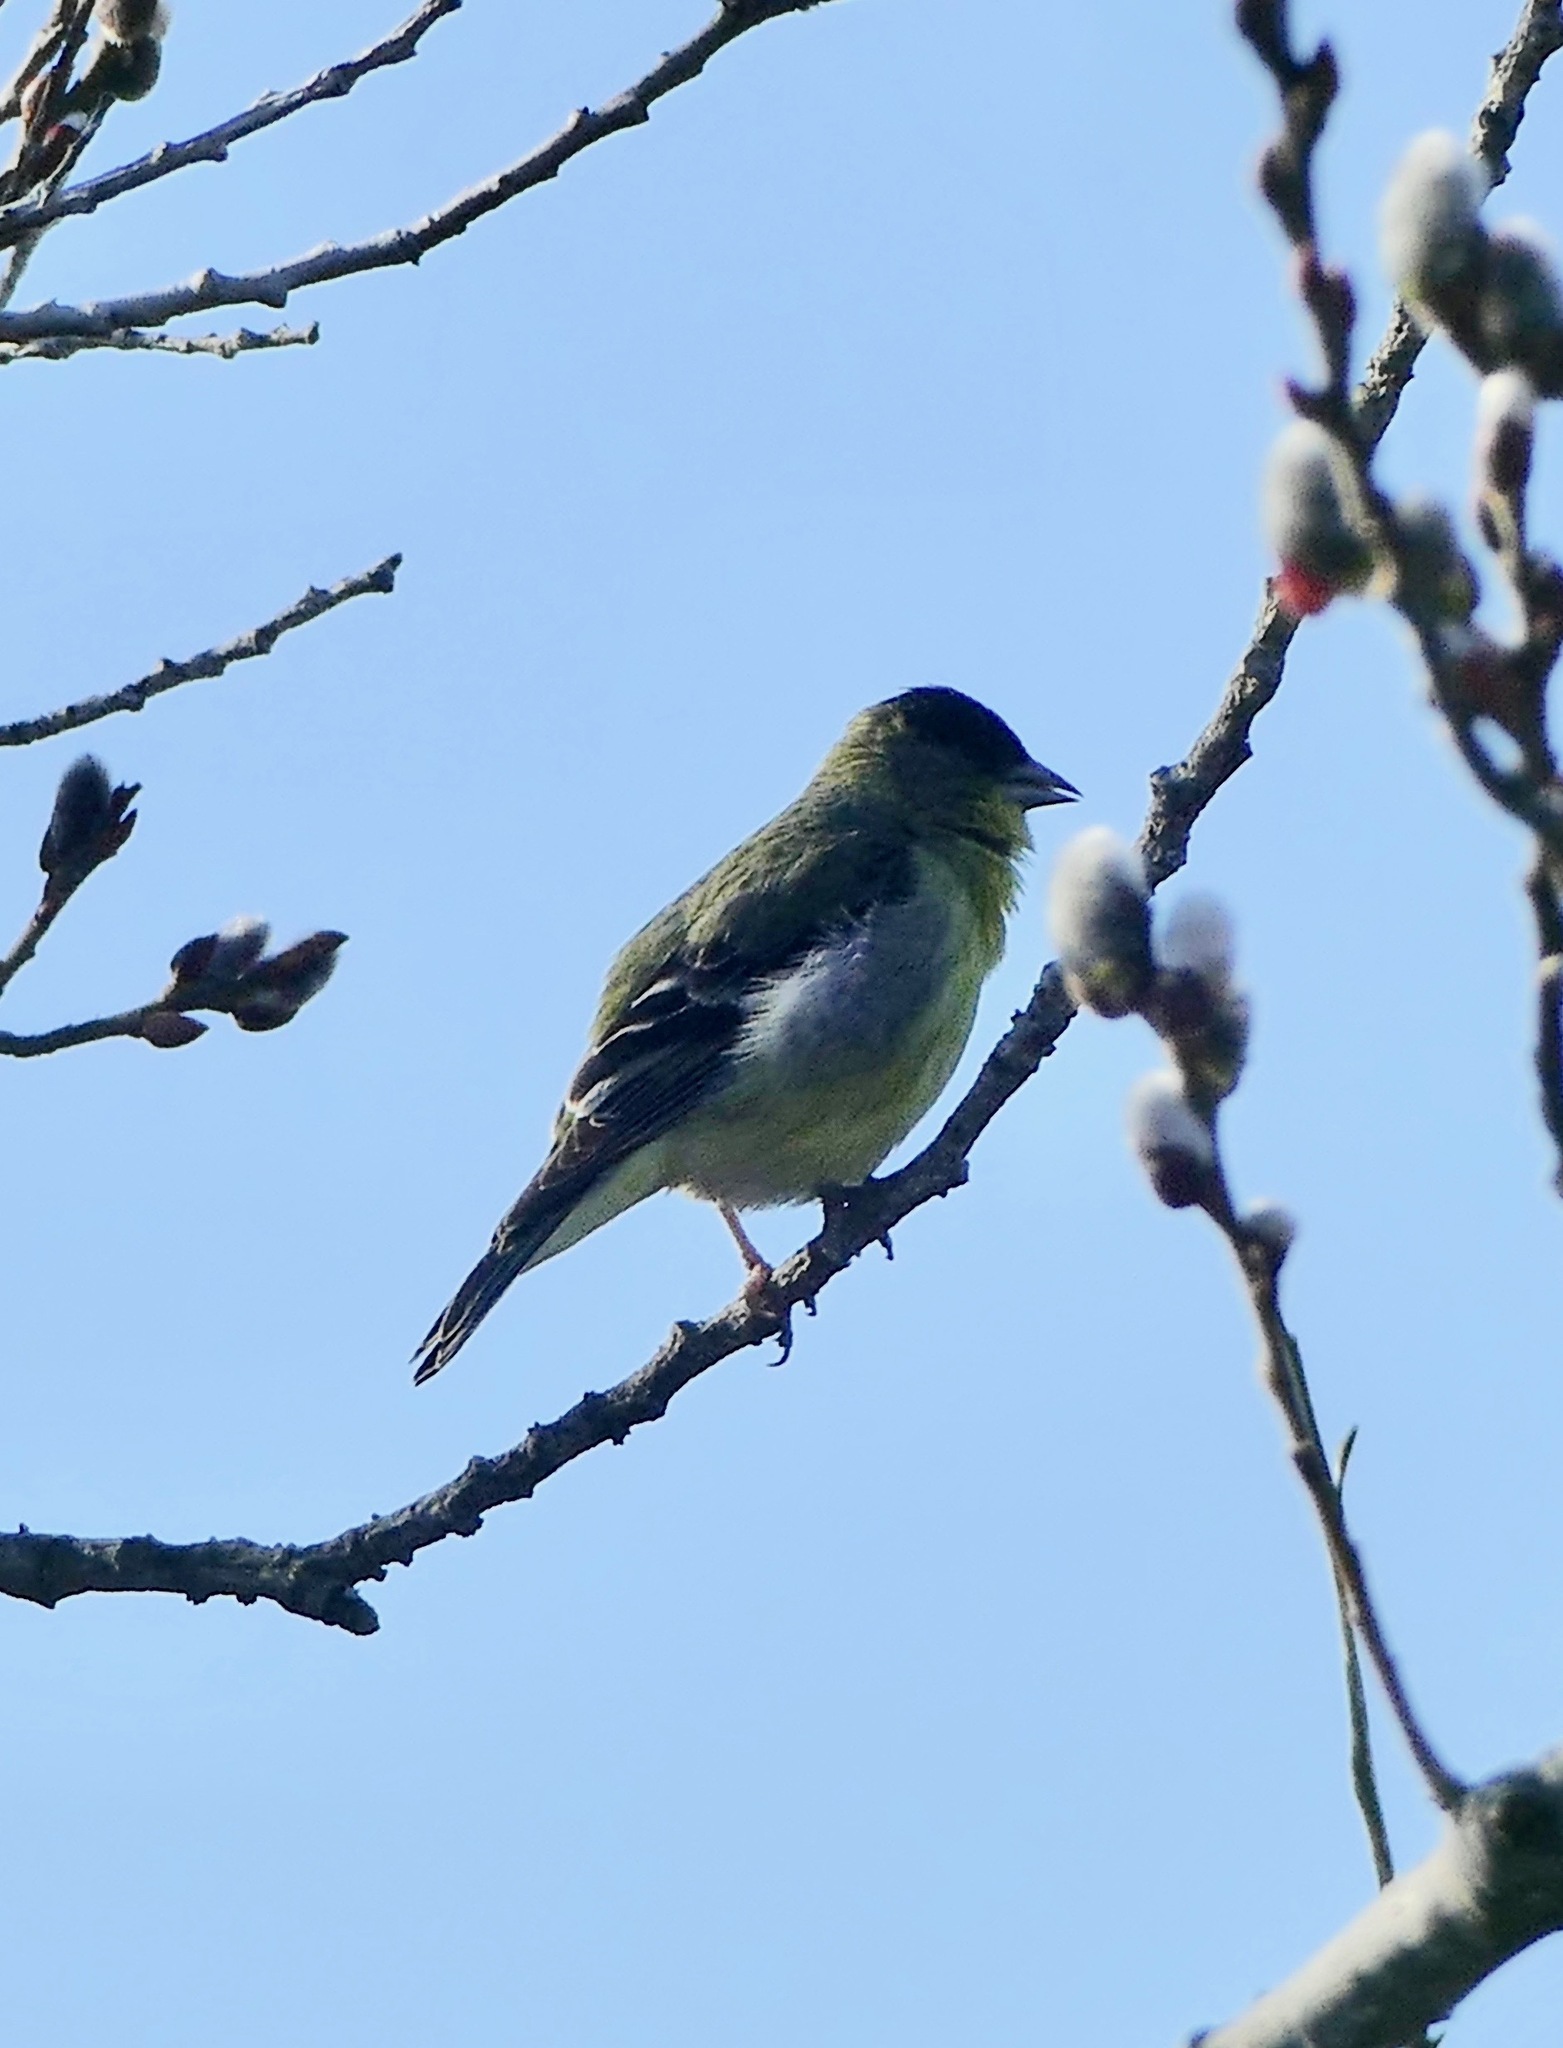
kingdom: Animalia
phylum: Chordata
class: Aves
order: Passeriformes
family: Fringillidae
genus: Spinus
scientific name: Spinus psaltria
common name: Lesser goldfinch
